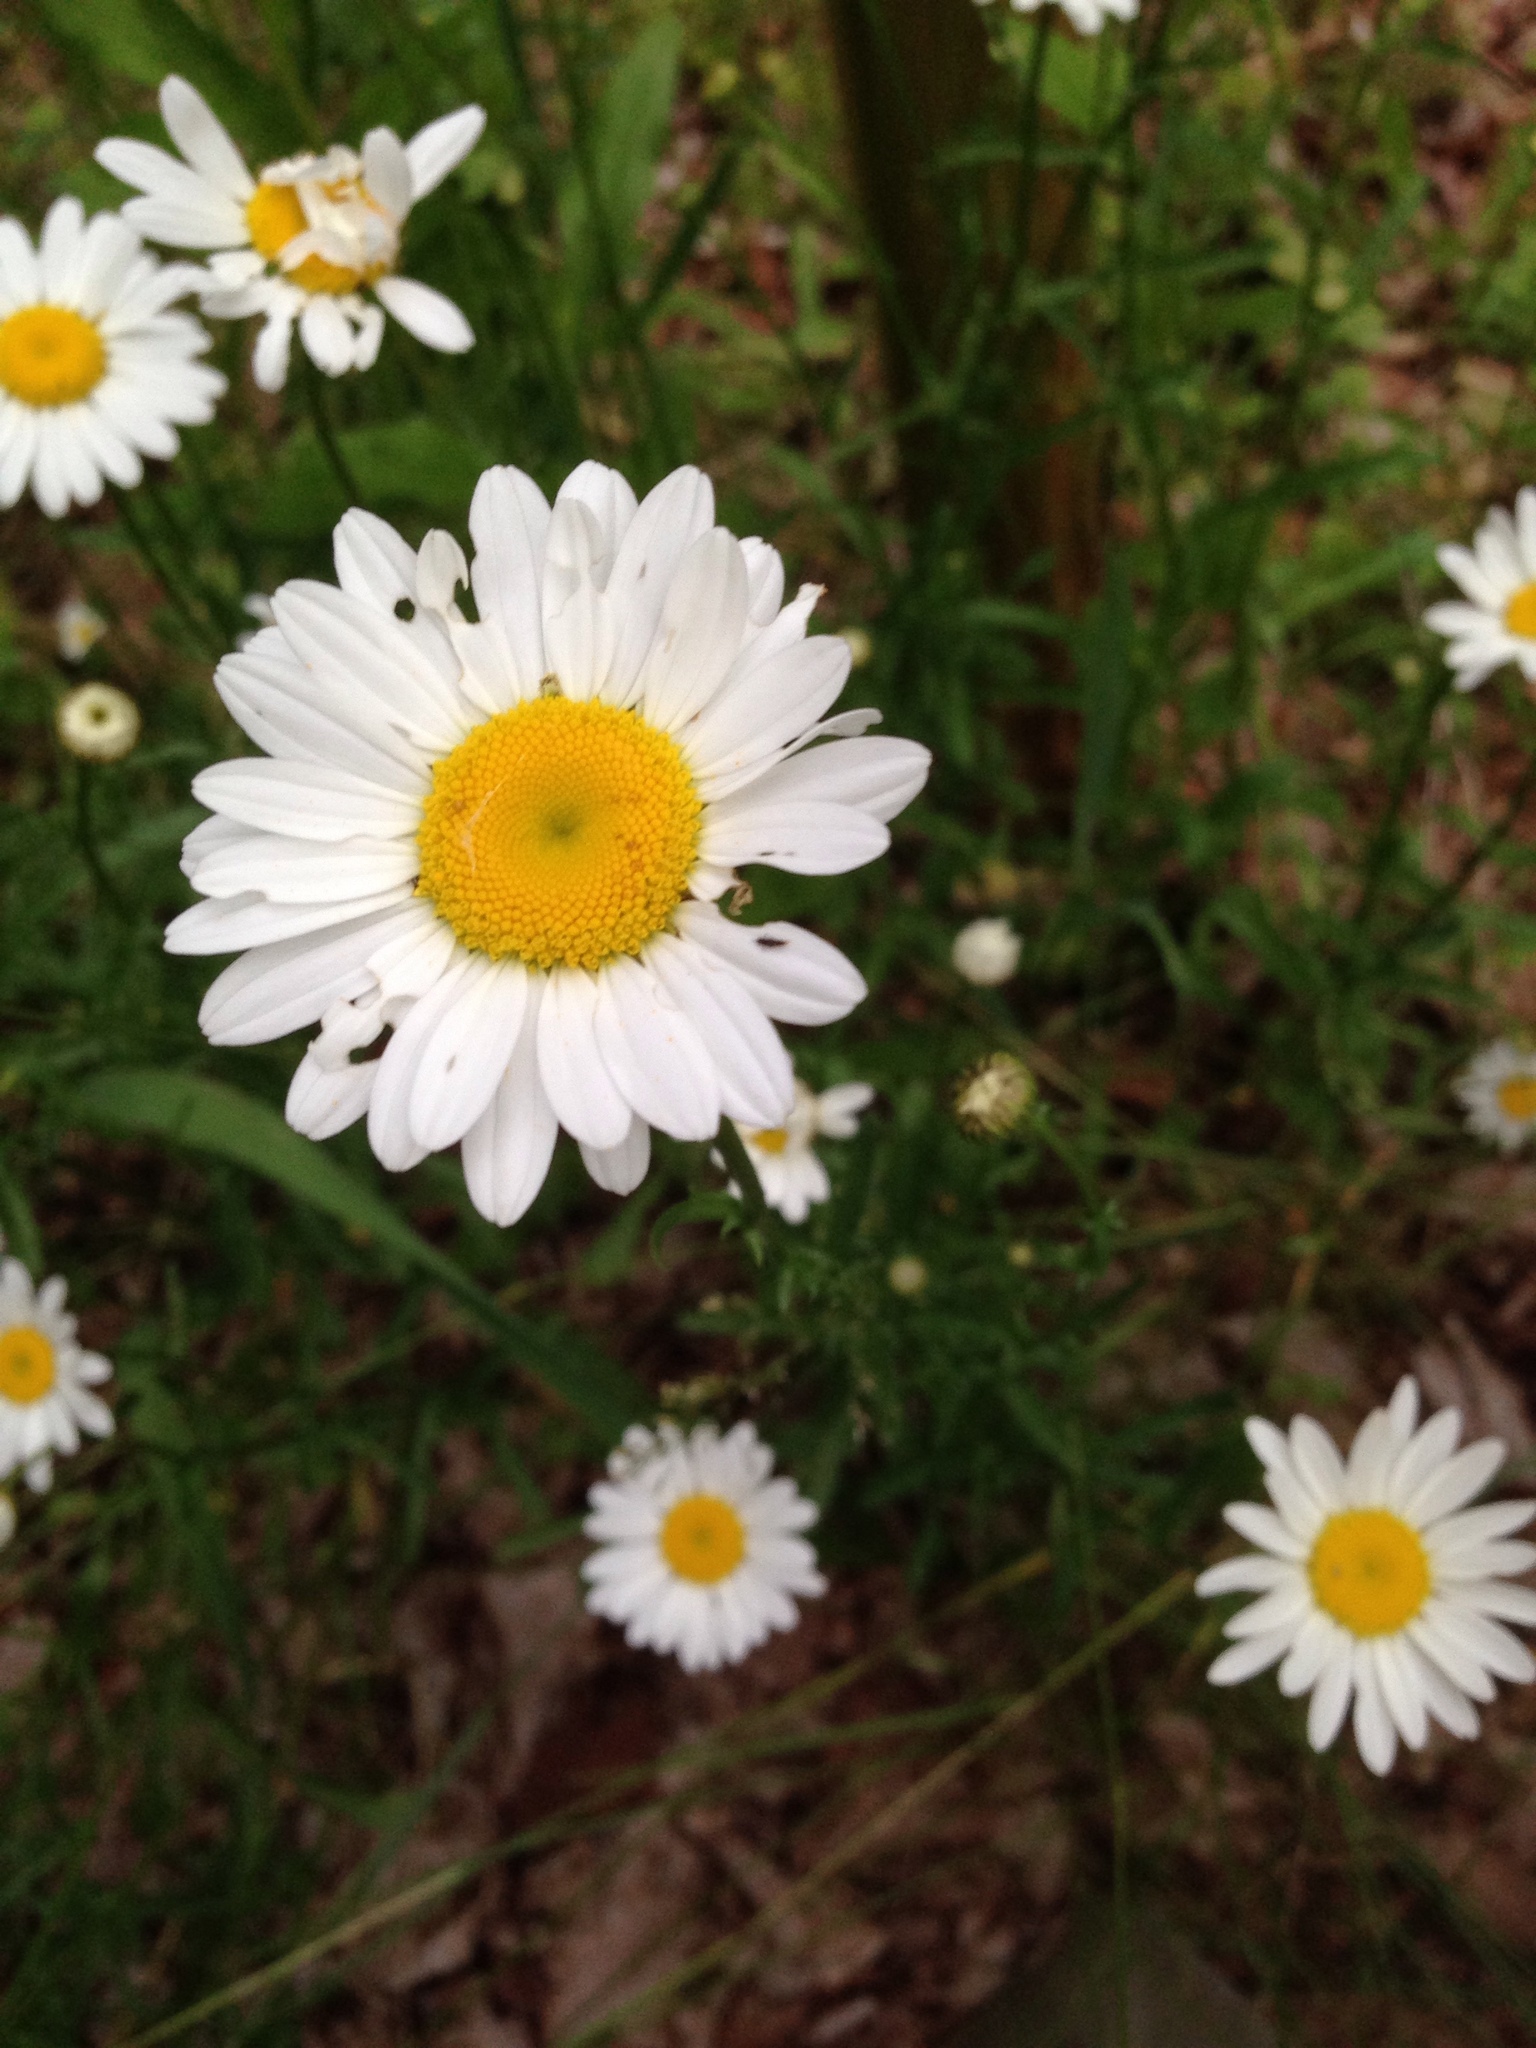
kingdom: Plantae
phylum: Tracheophyta
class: Magnoliopsida
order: Asterales
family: Asteraceae
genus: Leucanthemum
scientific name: Leucanthemum vulgare
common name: Oxeye daisy
